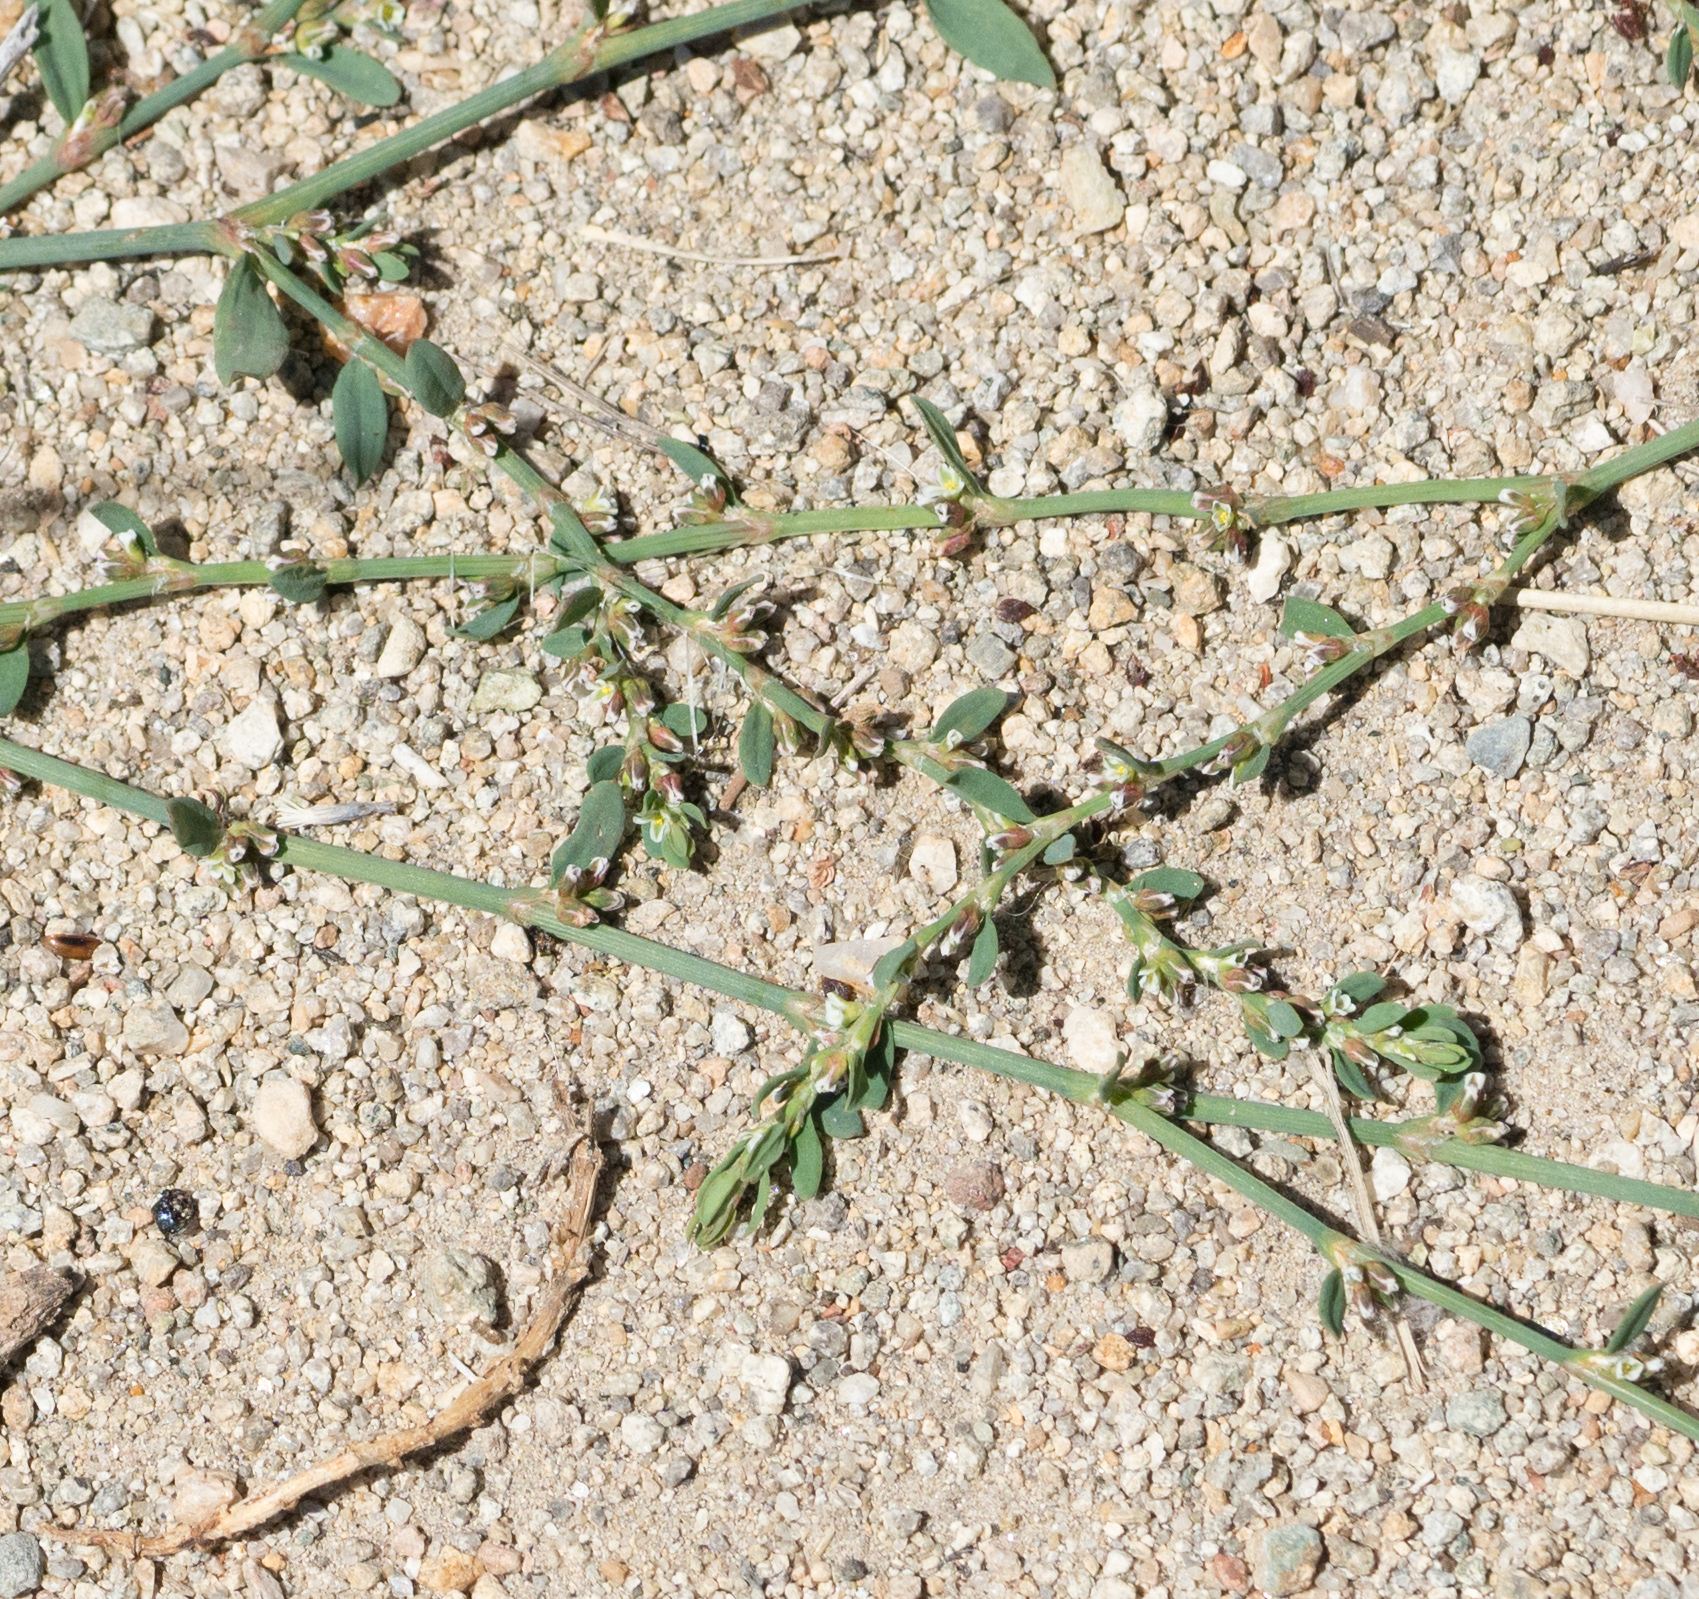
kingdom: Plantae
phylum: Tracheophyta
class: Magnoliopsida
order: Caryophyllales
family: Polygonaceae
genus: Polygonum
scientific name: Polygonum aviculare
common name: Prostrate knotweed
